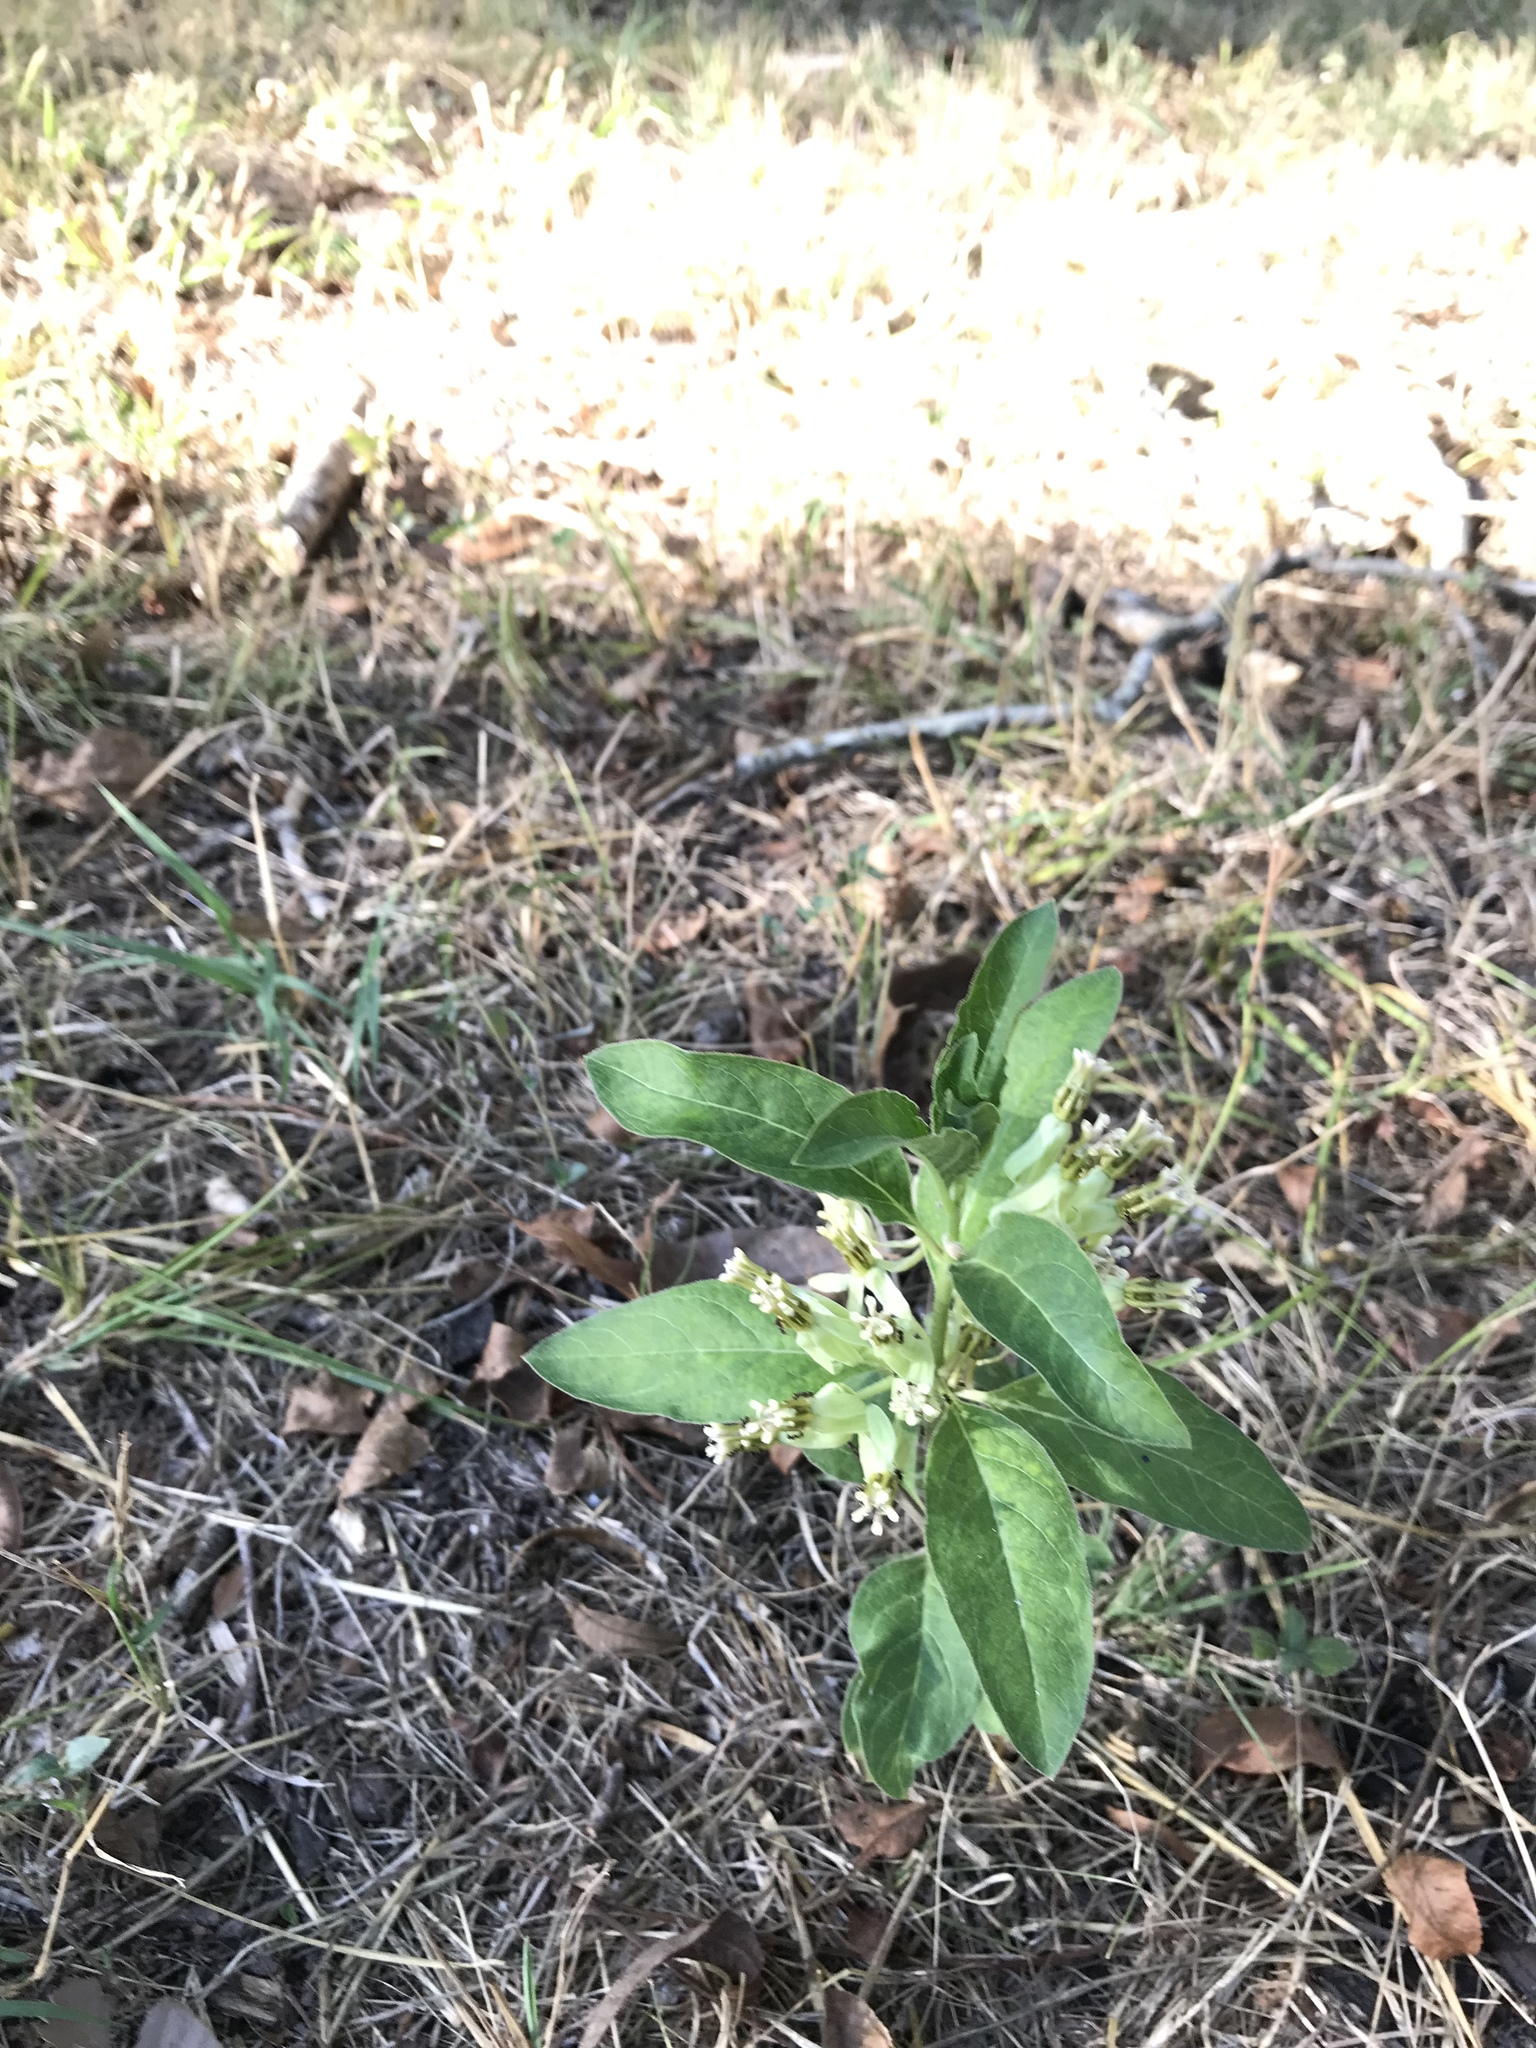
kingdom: Plantae
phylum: Tracheophyta
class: Magnoliopsida
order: Gentianales
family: Apocynaceae
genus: Asclepias
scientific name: Asclepias oenotheroides
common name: Zizotes milkweed
